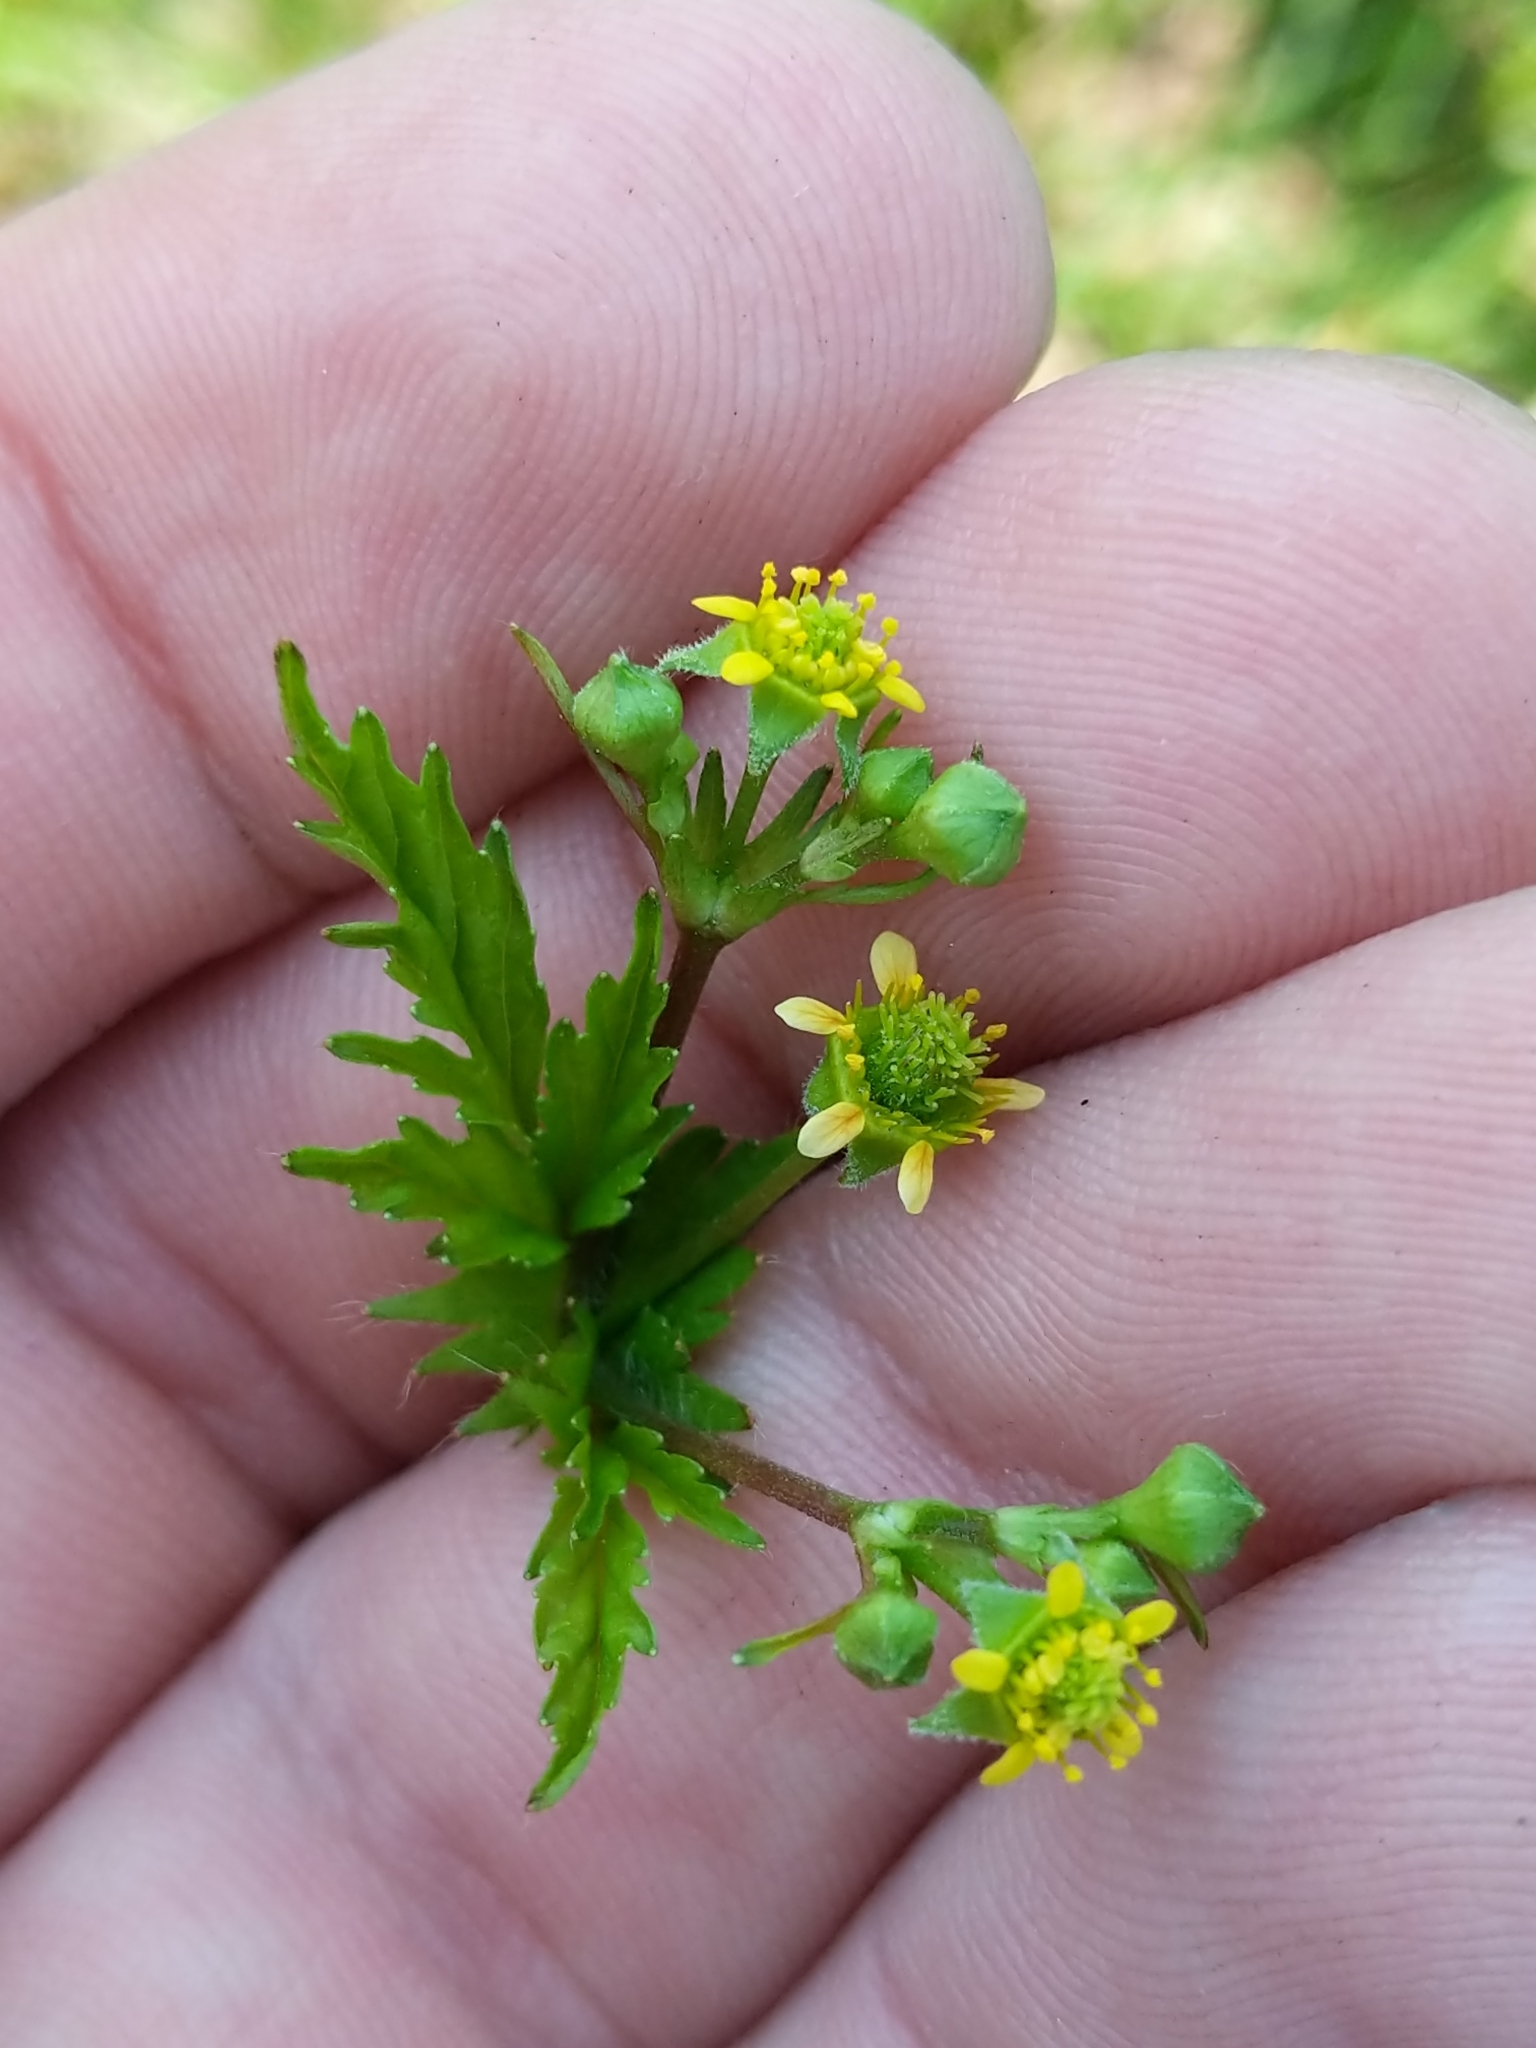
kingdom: Plantae
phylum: Tracheophyta
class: Magnoliopsida
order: Rosales
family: Rosaceae
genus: Geum
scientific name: Geum vernum
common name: Spring avens
